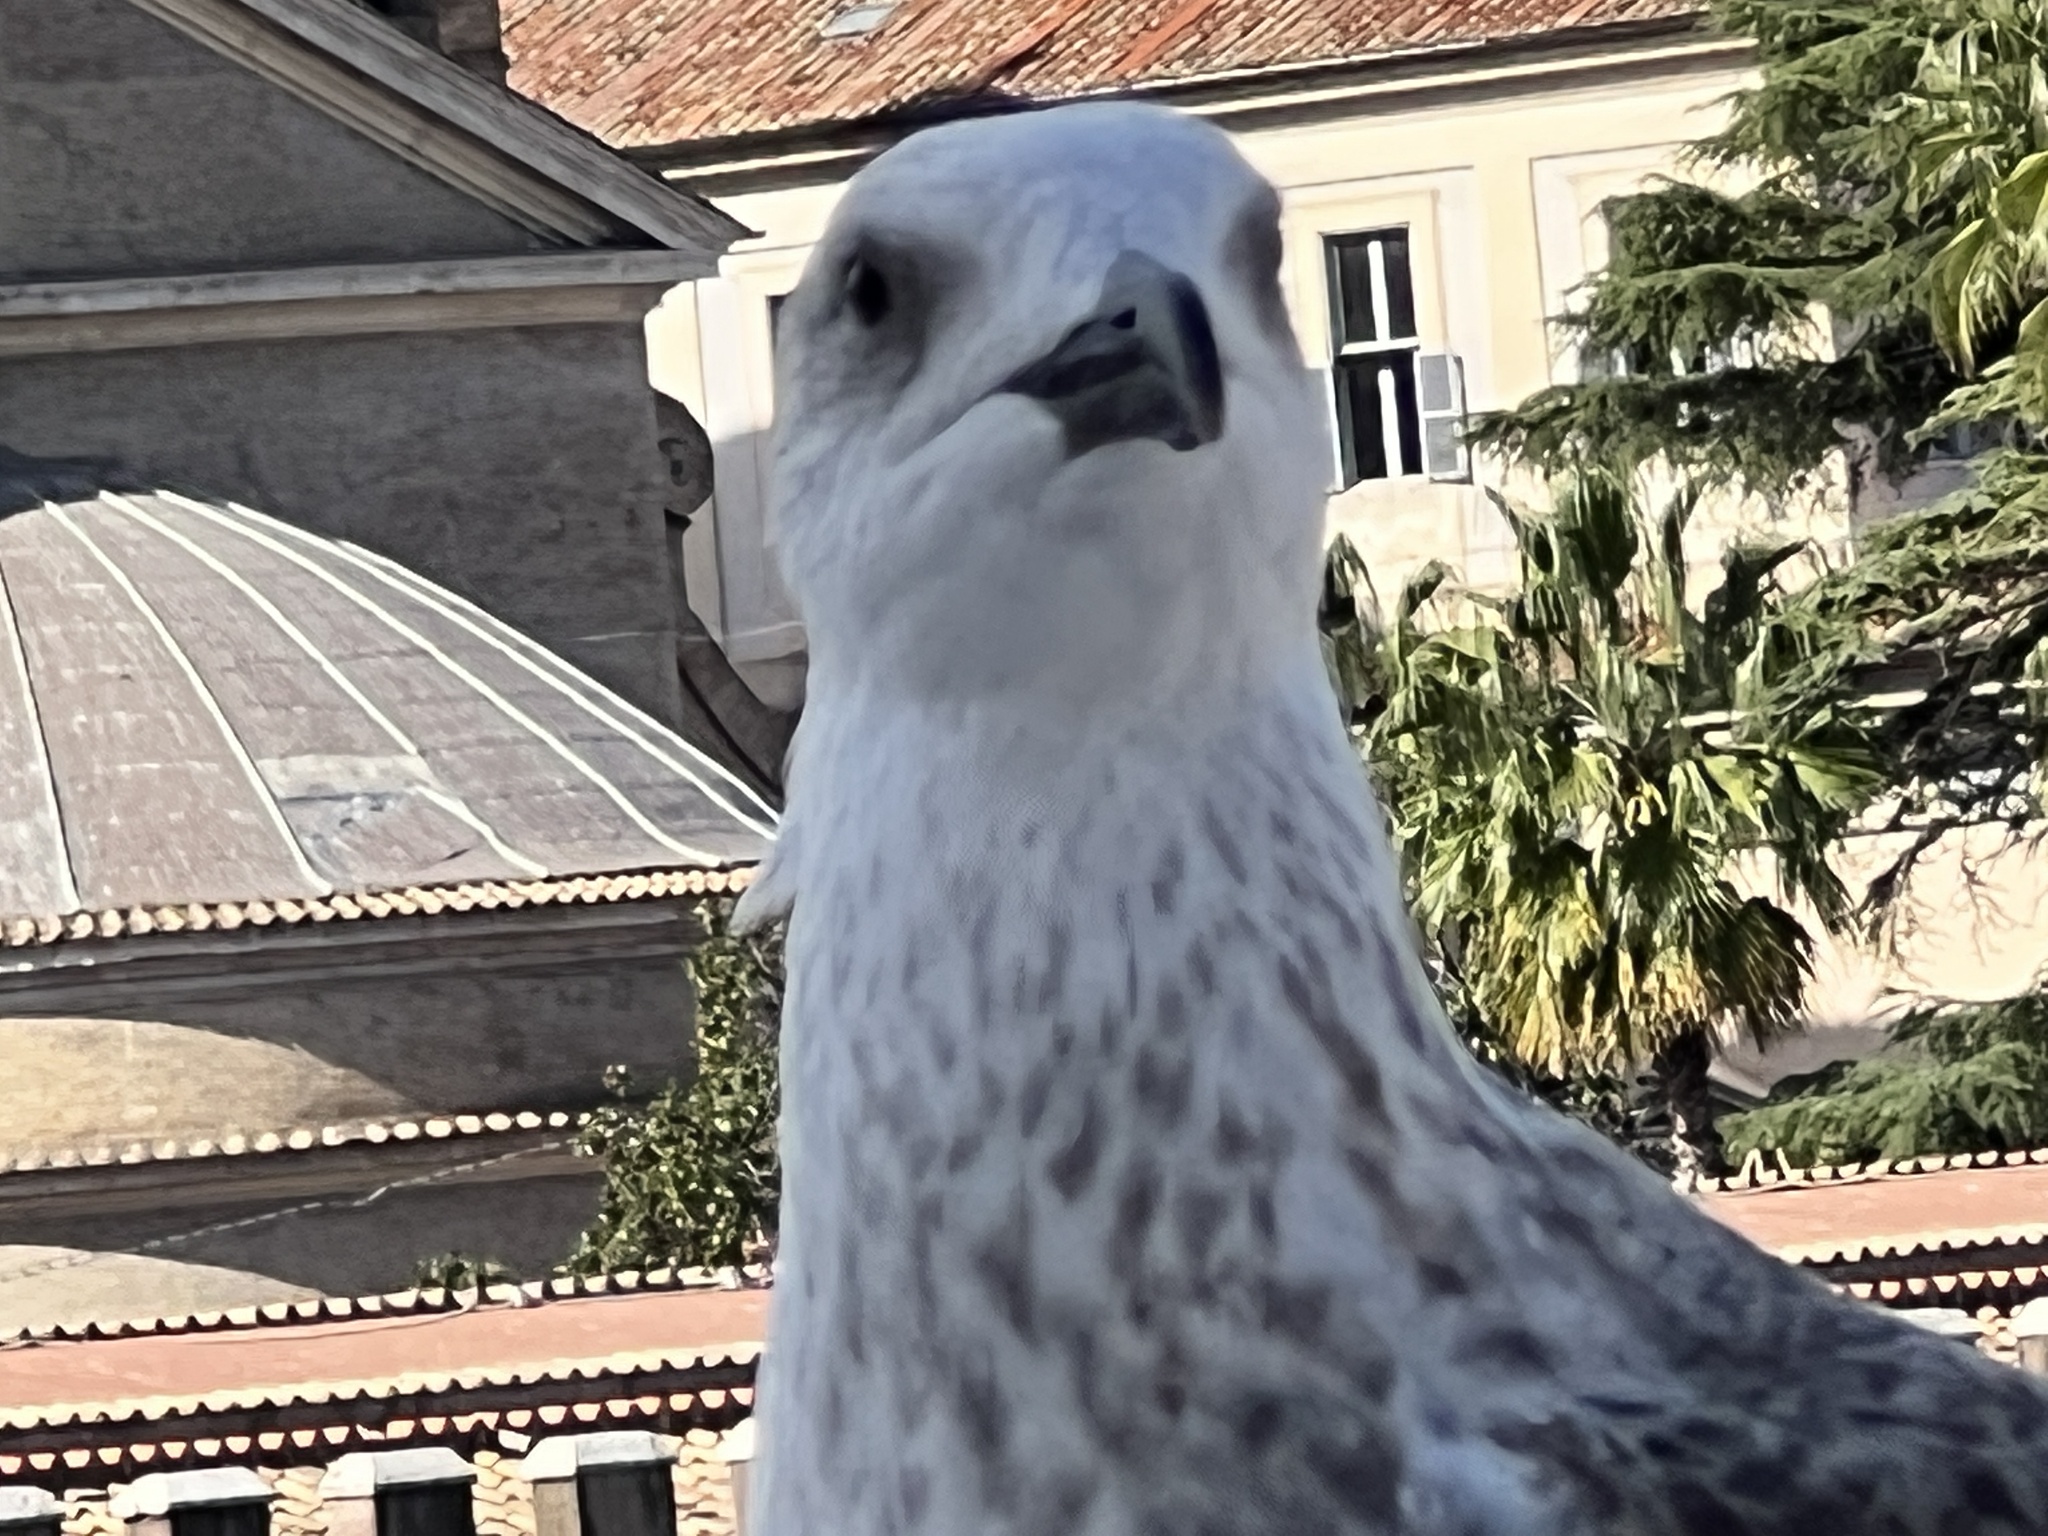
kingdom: Animalia
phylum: Chordata
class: Aves
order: Charadriiformes
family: Laridae
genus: Larus
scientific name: Larus michahellis
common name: Yellow-legged gull
